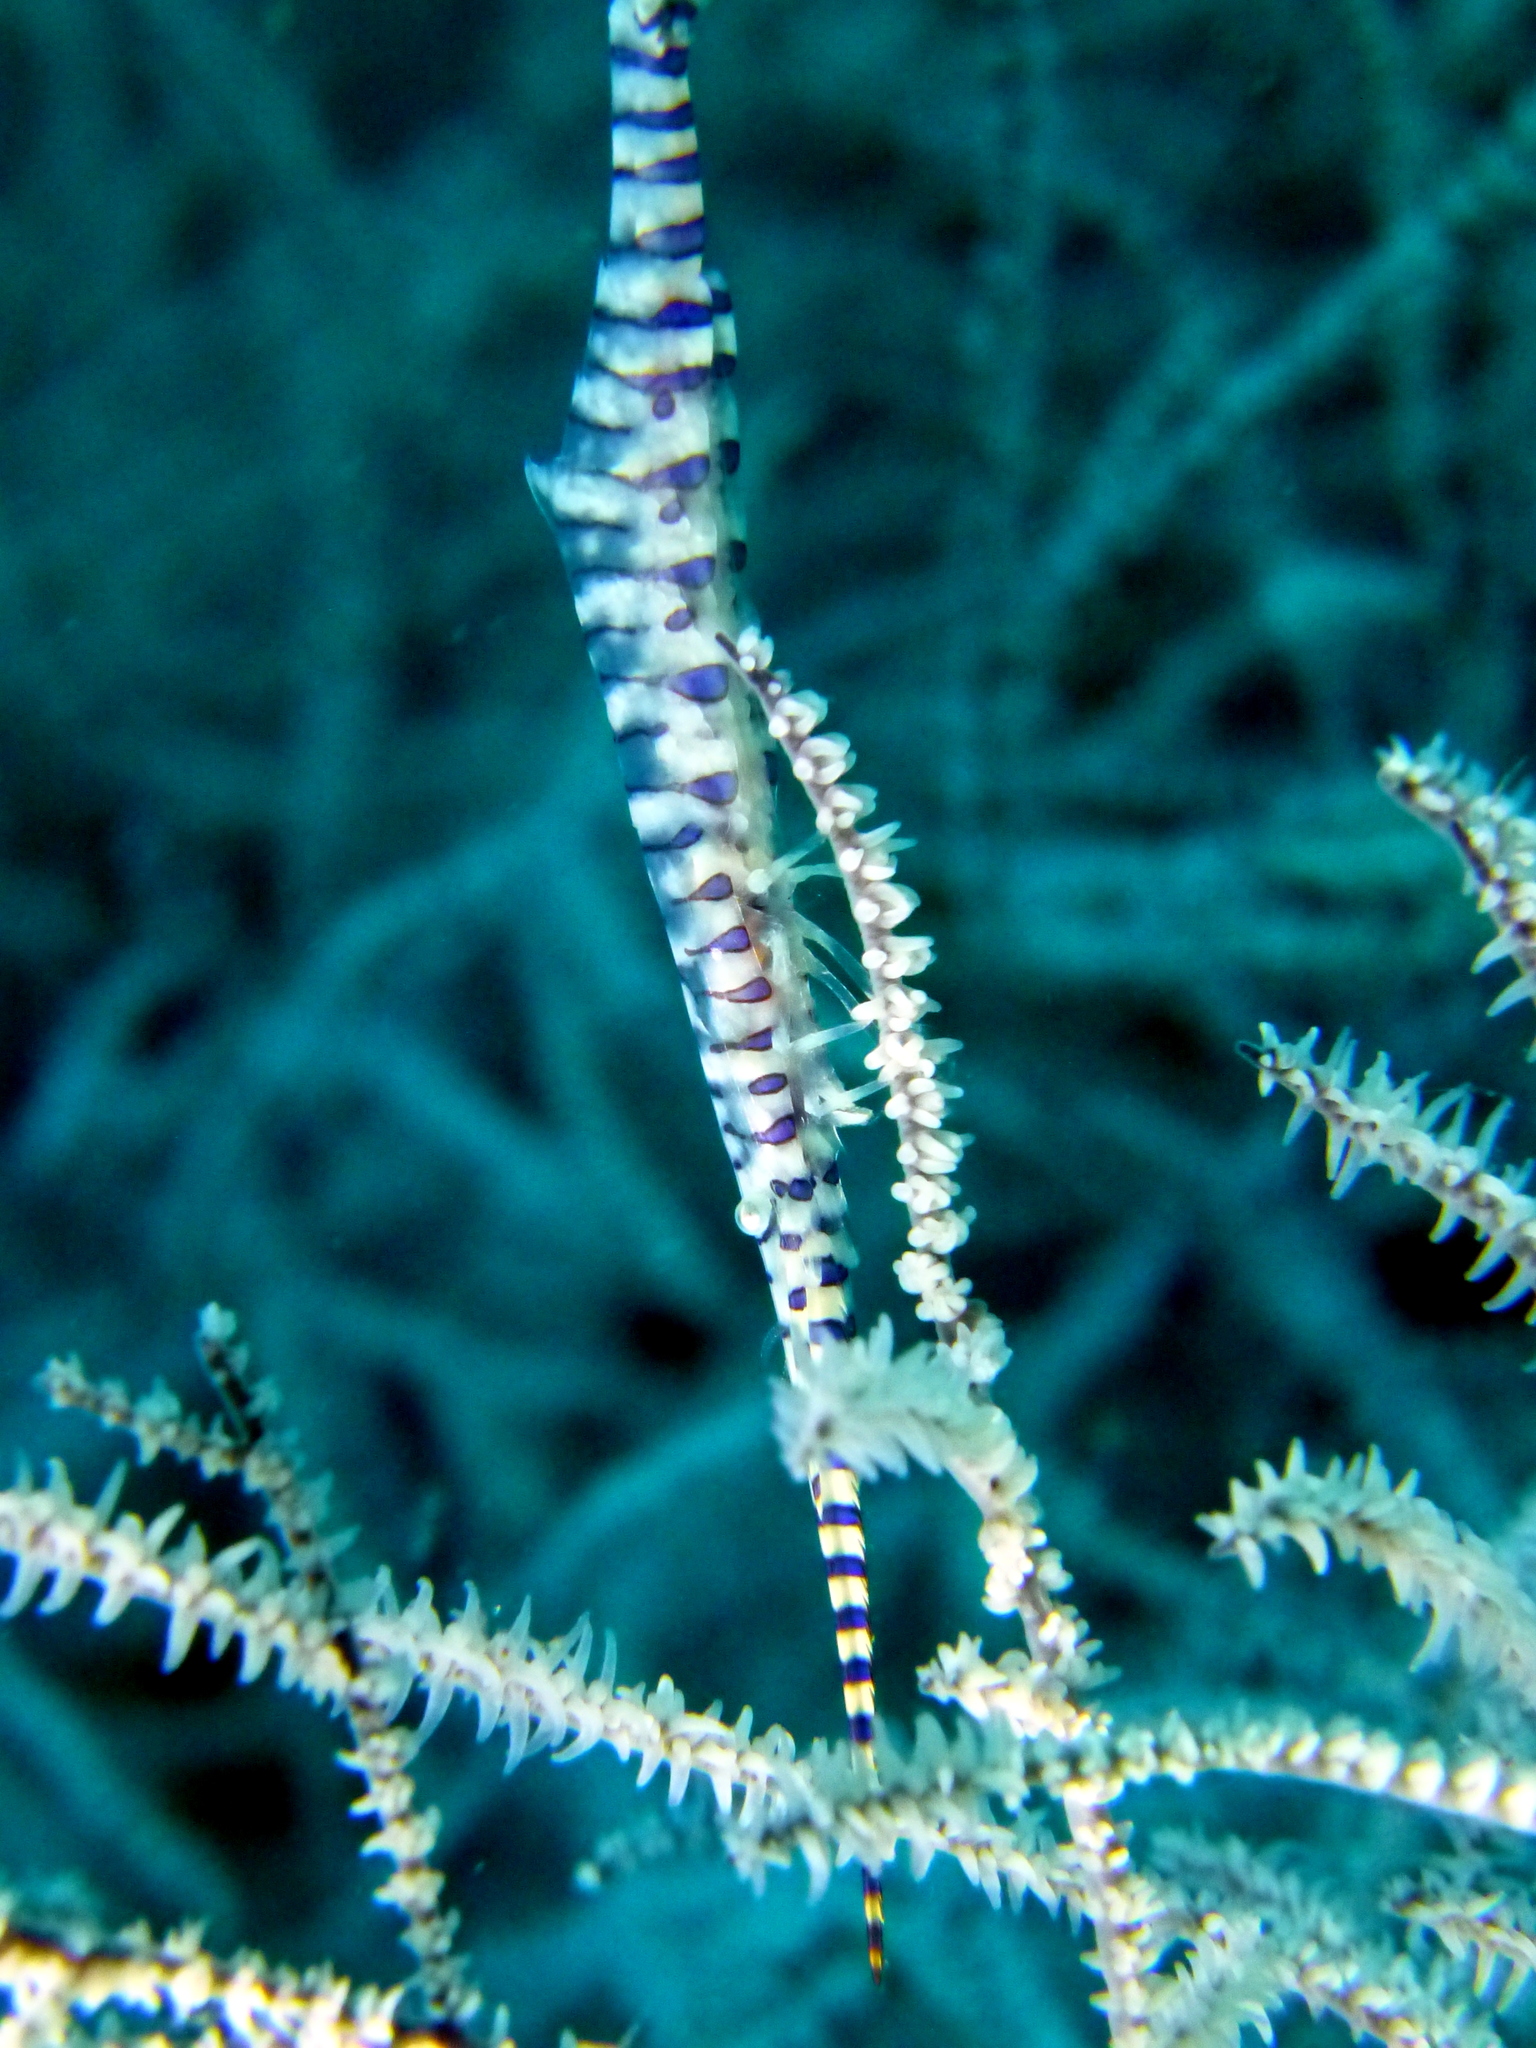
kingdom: Animalia
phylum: Arthropoda
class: Malacostraca
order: Decapoda
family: Hippolytidae
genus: Tozeuma
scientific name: Tozeuma armatum
